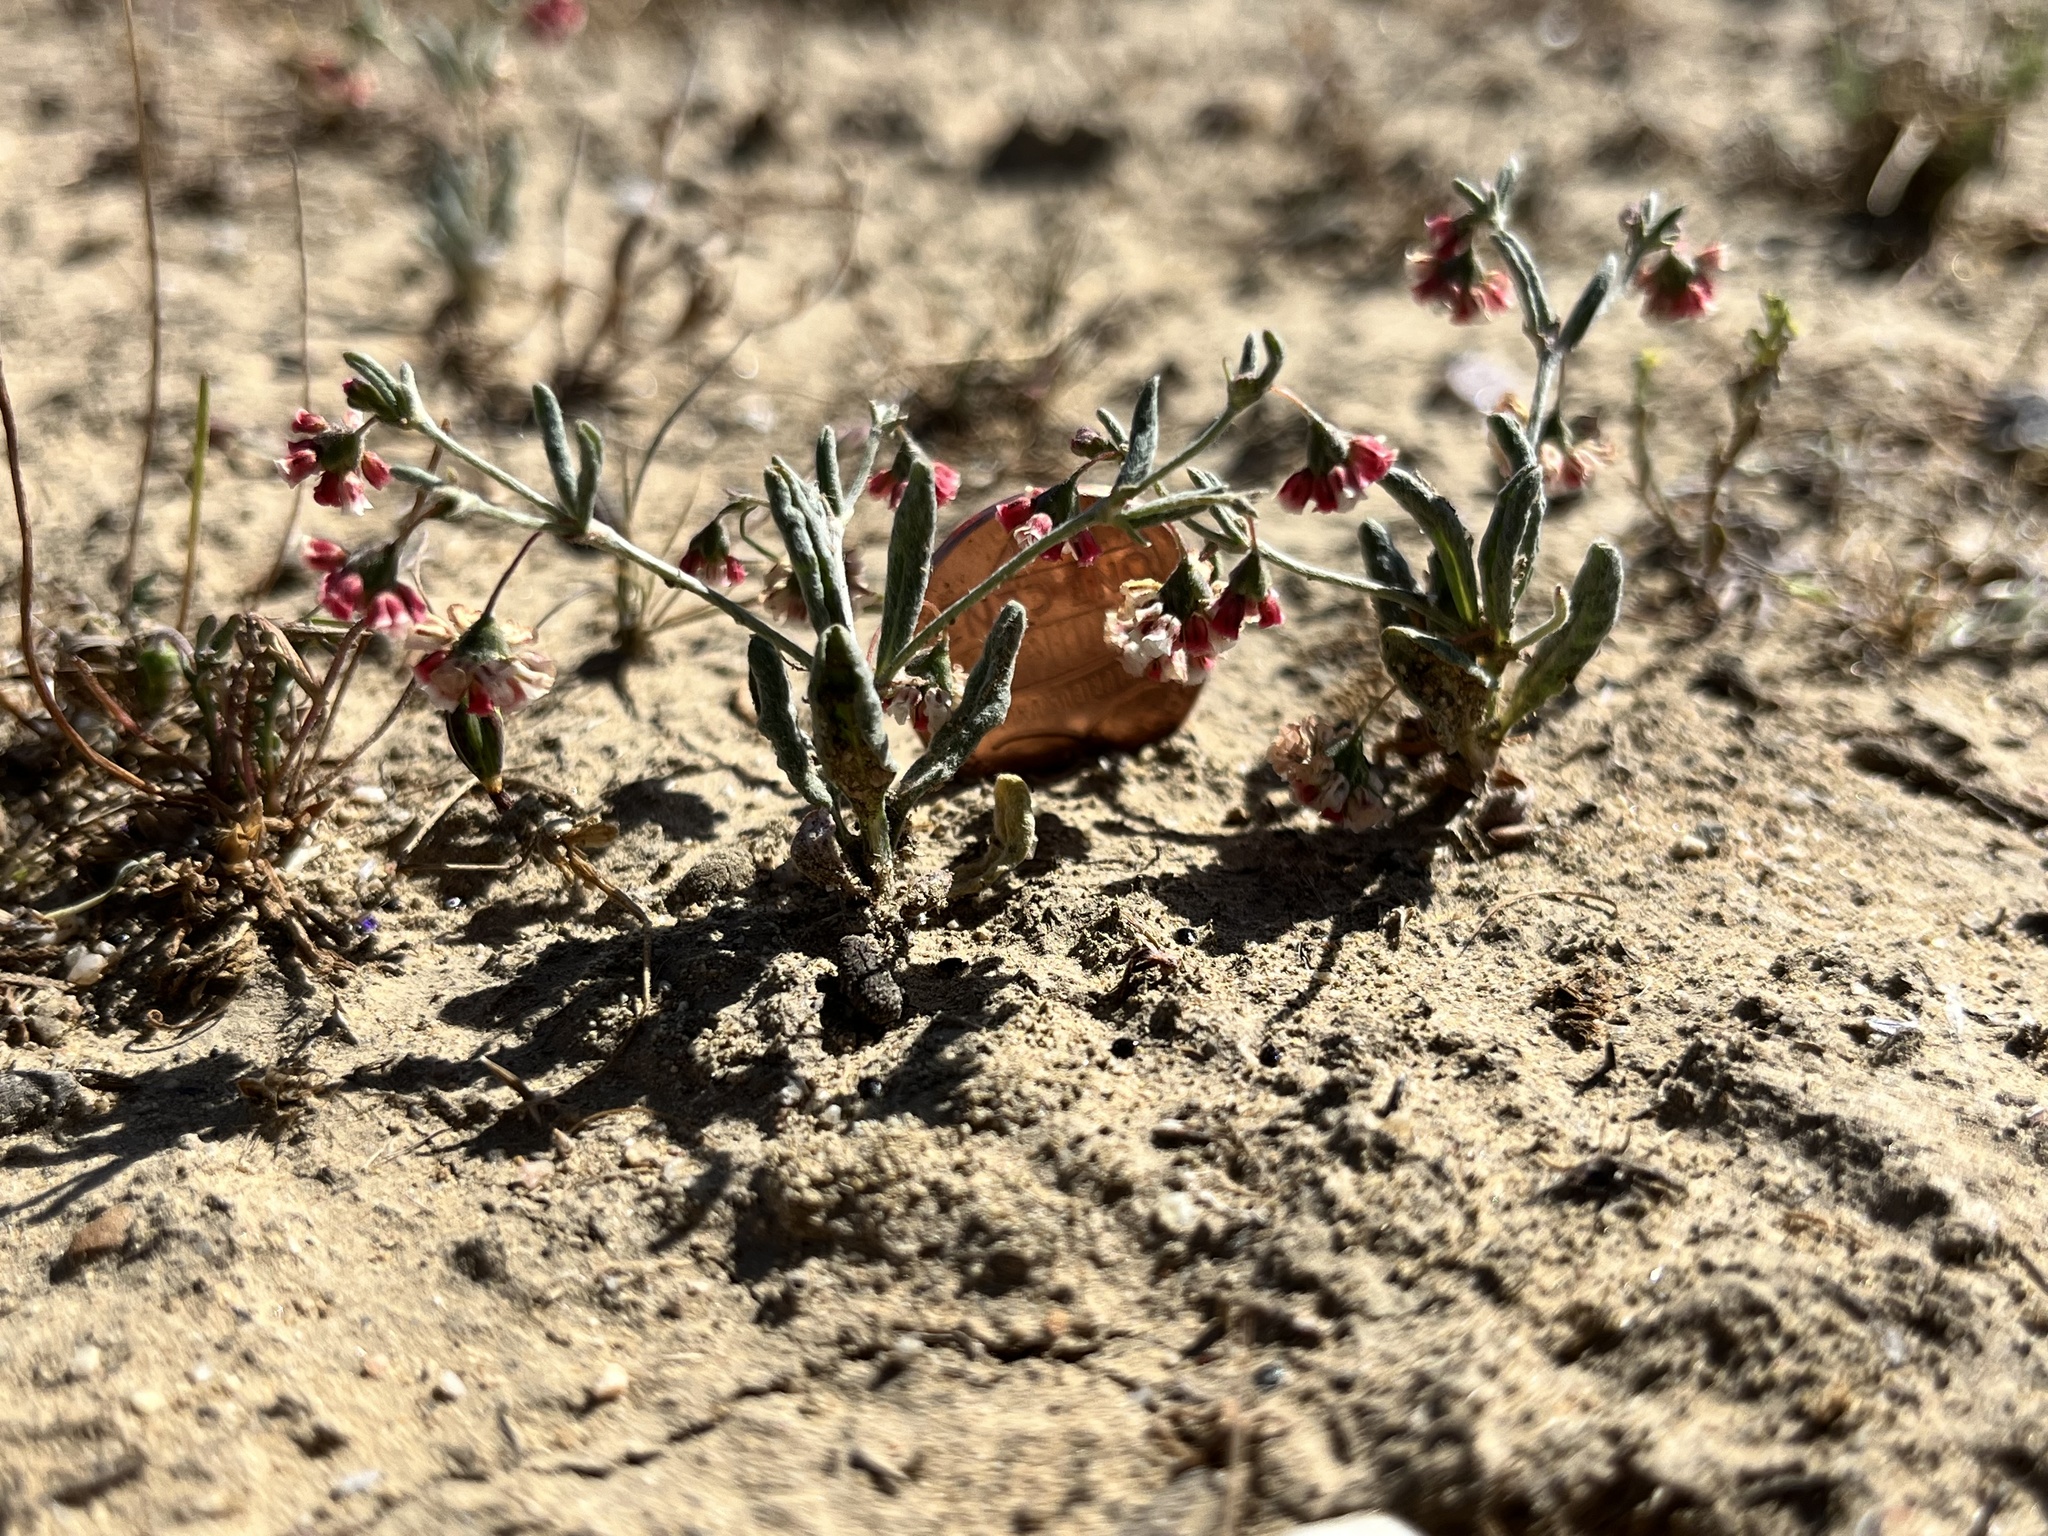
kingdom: Plantae
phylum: Tracheophyta
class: Magnoliopsida
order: Caryophyllales
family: Polygonaceae
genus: Eriogonum
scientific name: Eriogonum gracillimum
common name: Rose-and-white wild buckwheat
